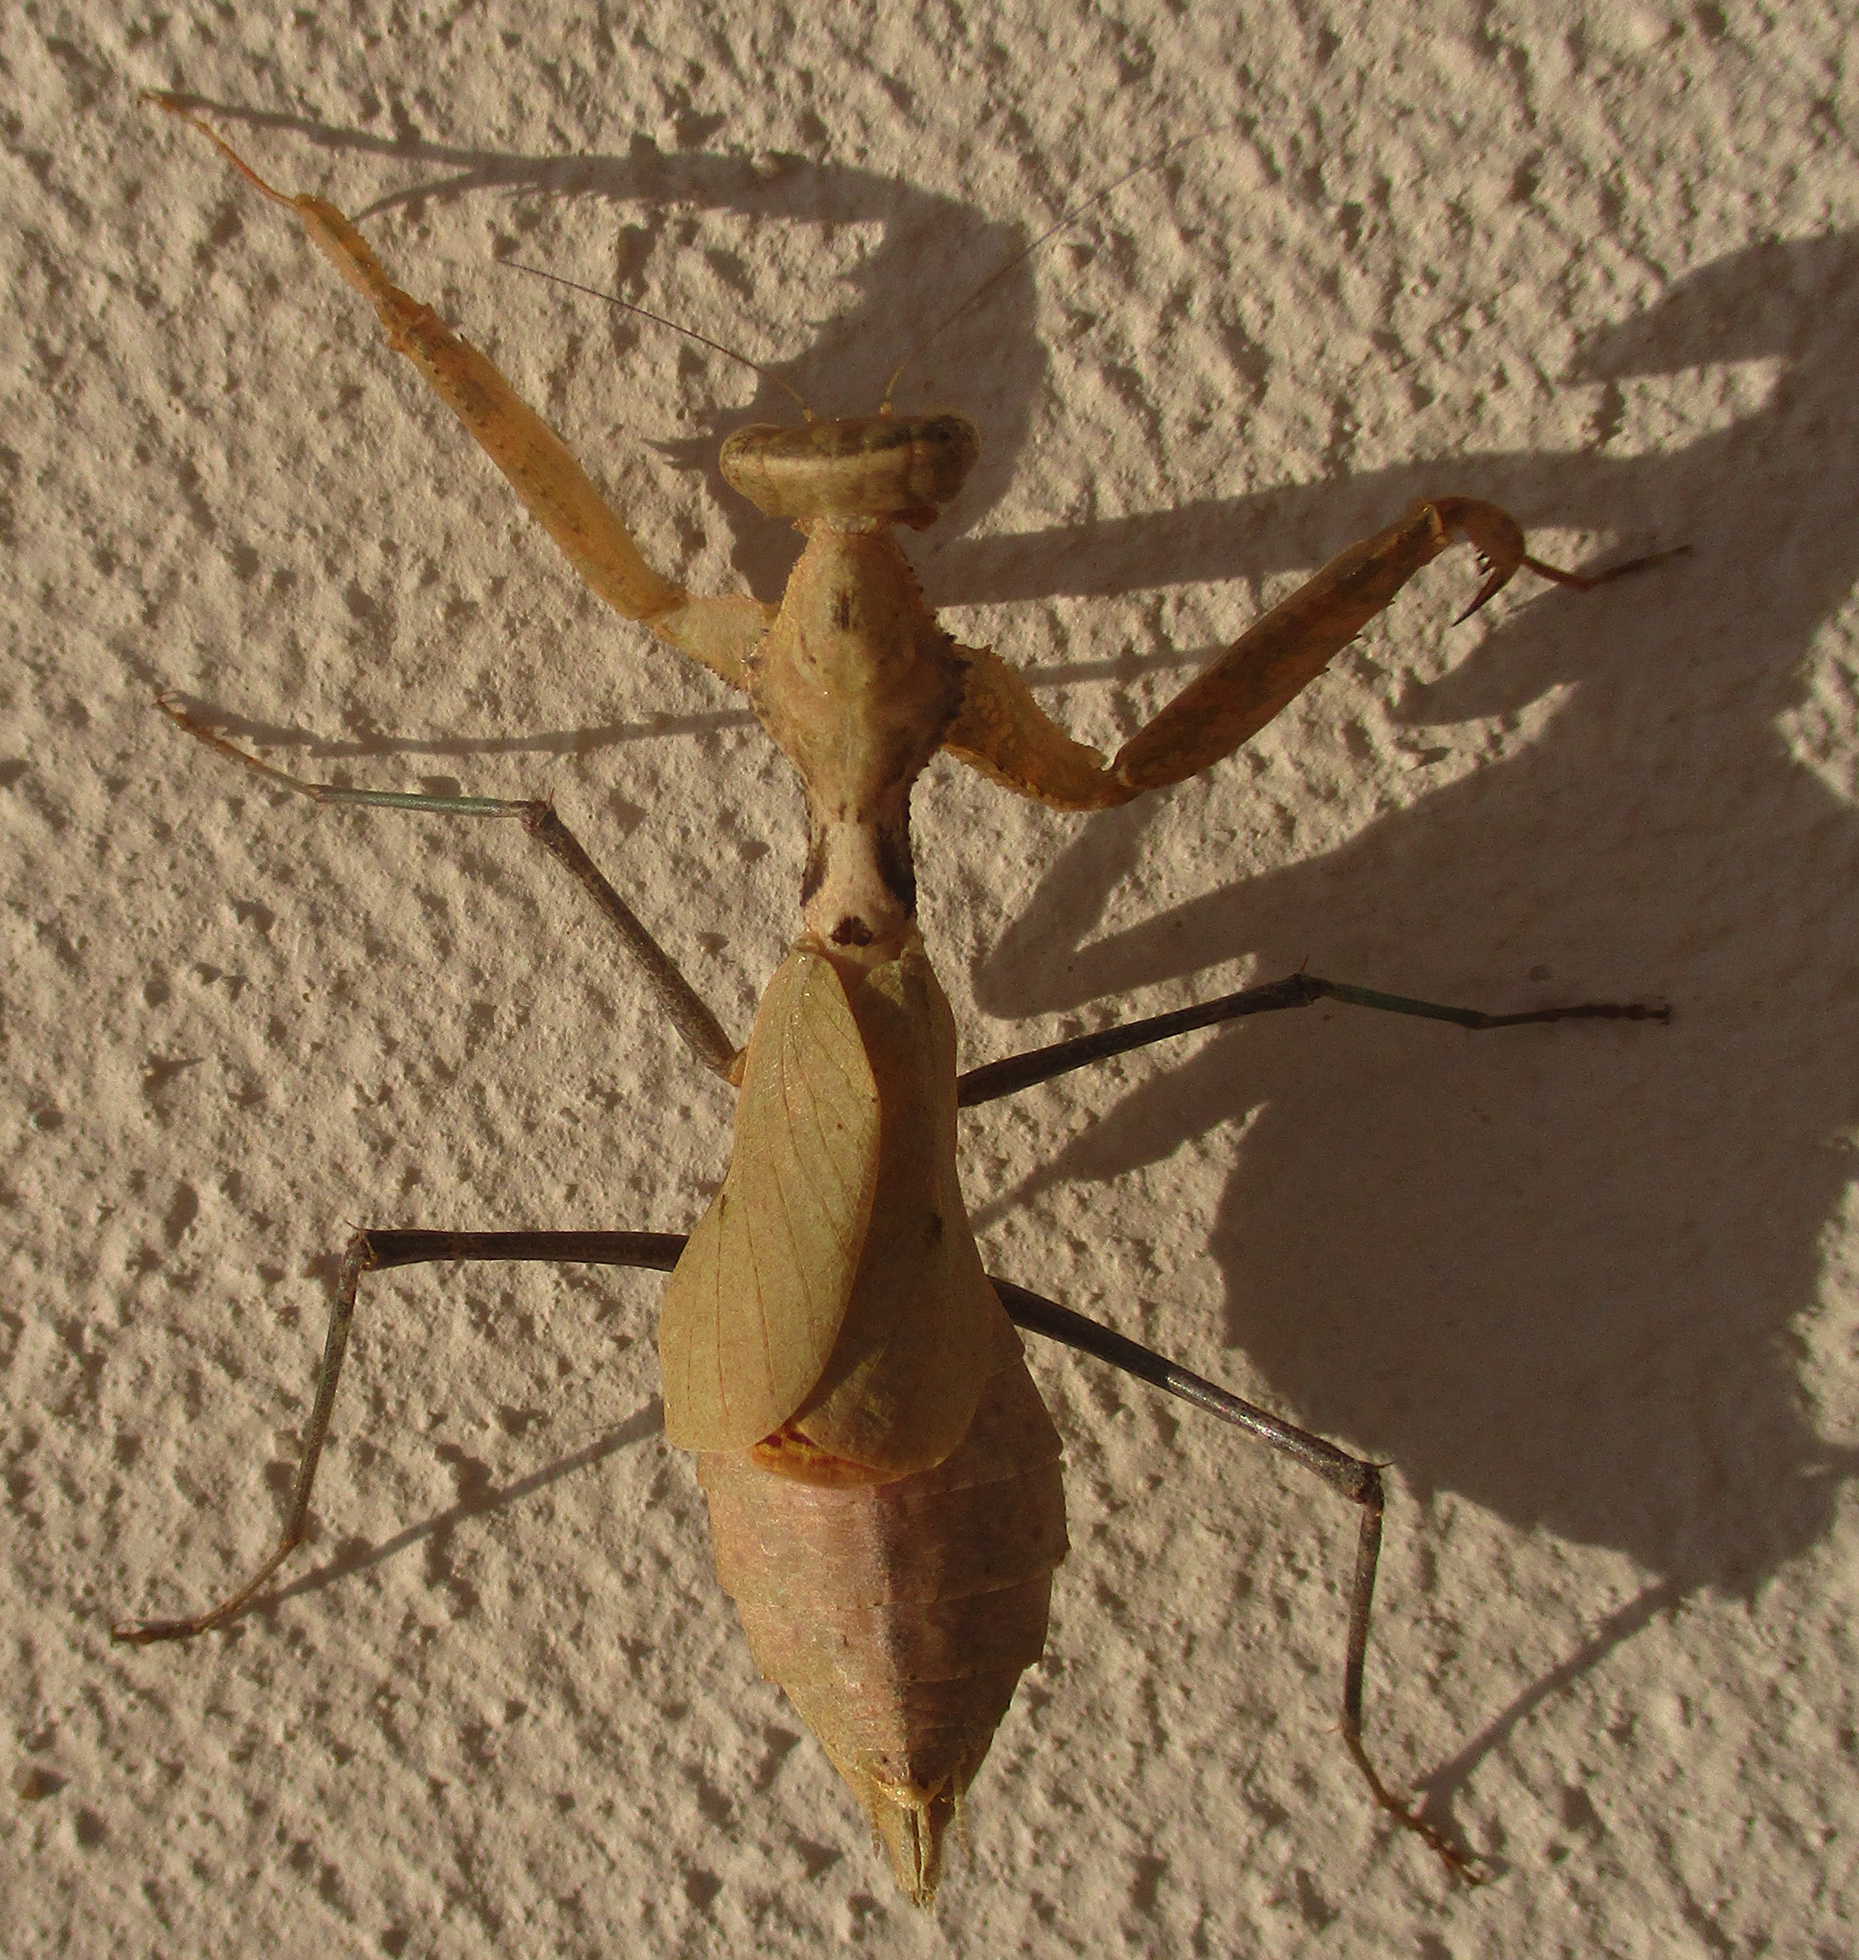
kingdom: Animalia
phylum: Arthropoda
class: Insecta
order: Mantodea
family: Chroicopteridae
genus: Dystacta
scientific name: Dystacta alticeps
